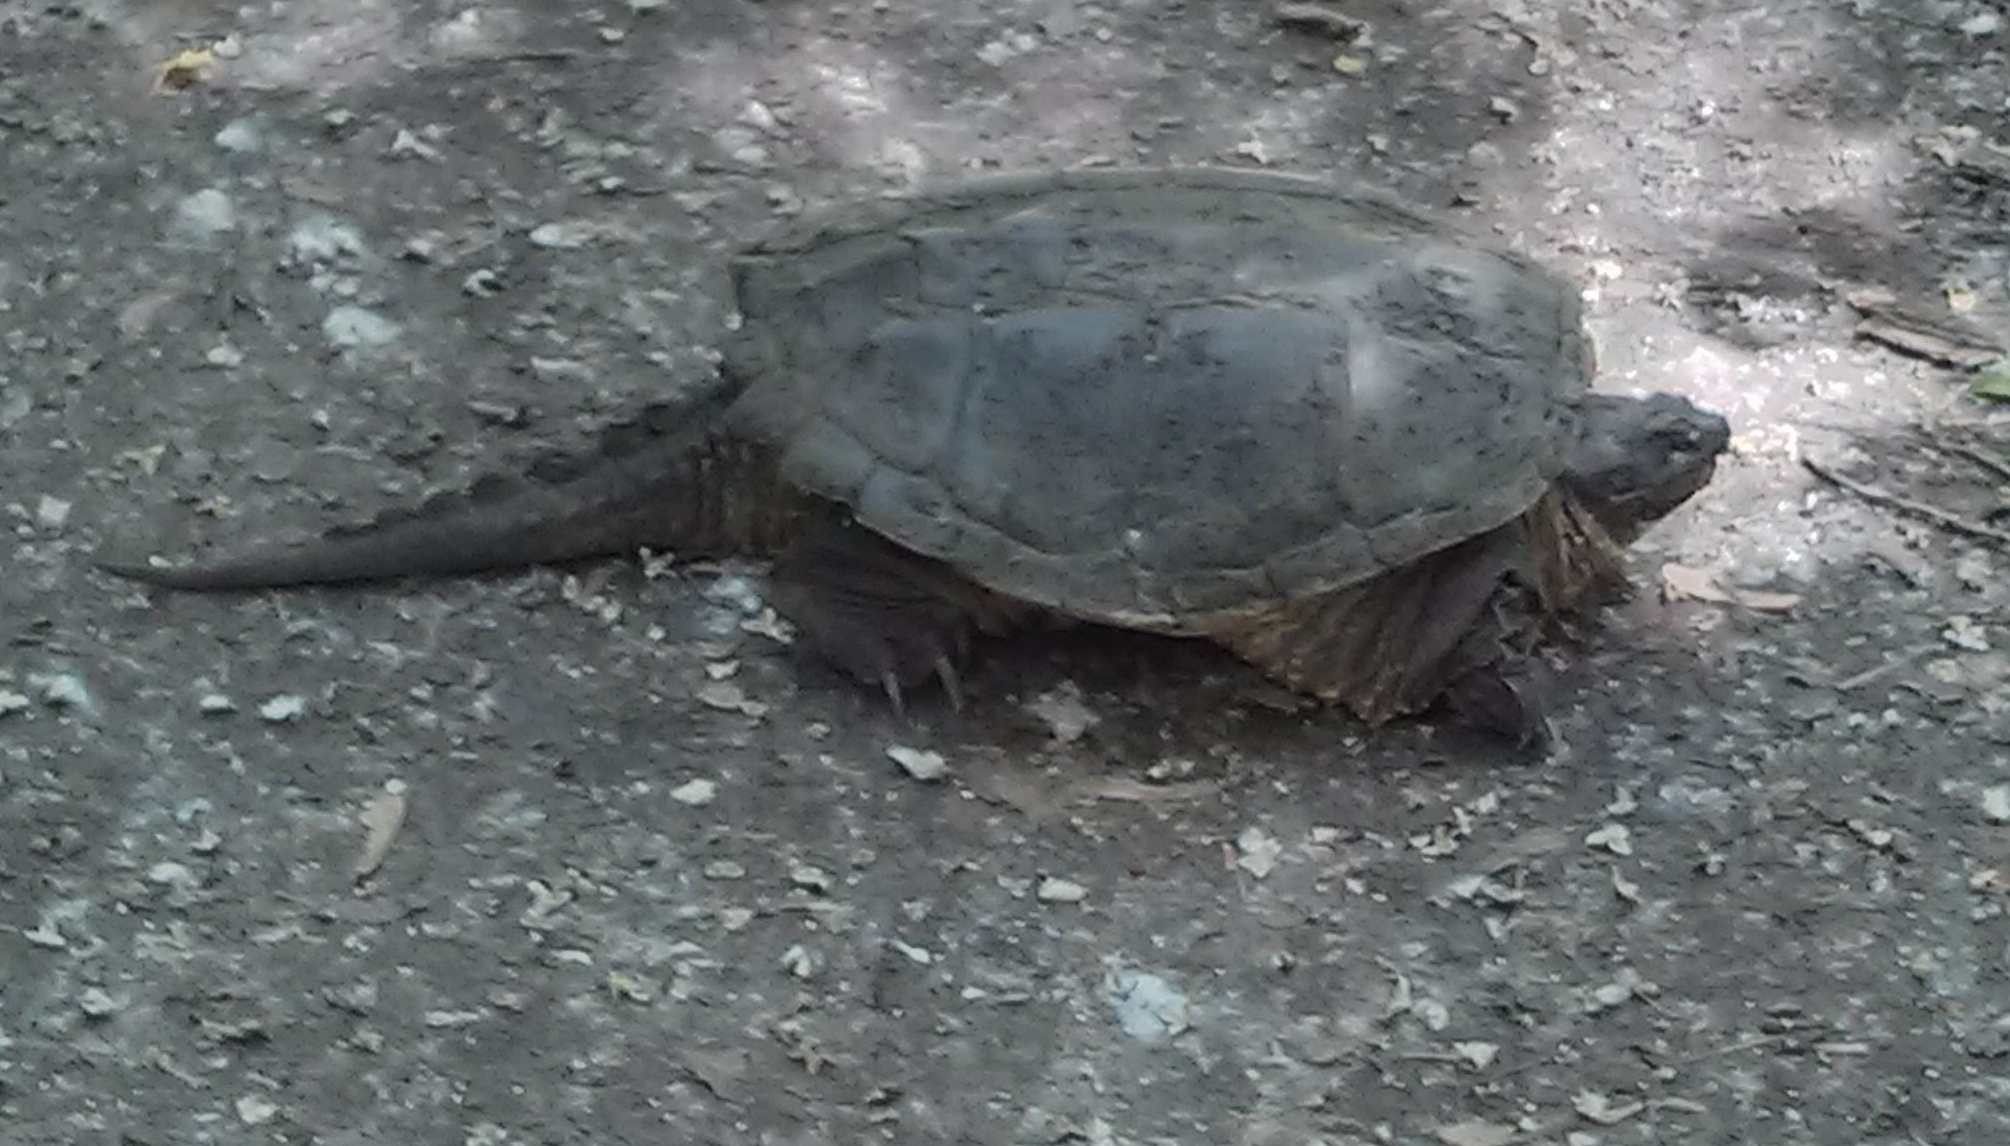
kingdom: Animalia
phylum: Chordata
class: Testudines
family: Chelydridae
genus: Chelydra
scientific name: Chelydra serpentina
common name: Common snapping turtle
